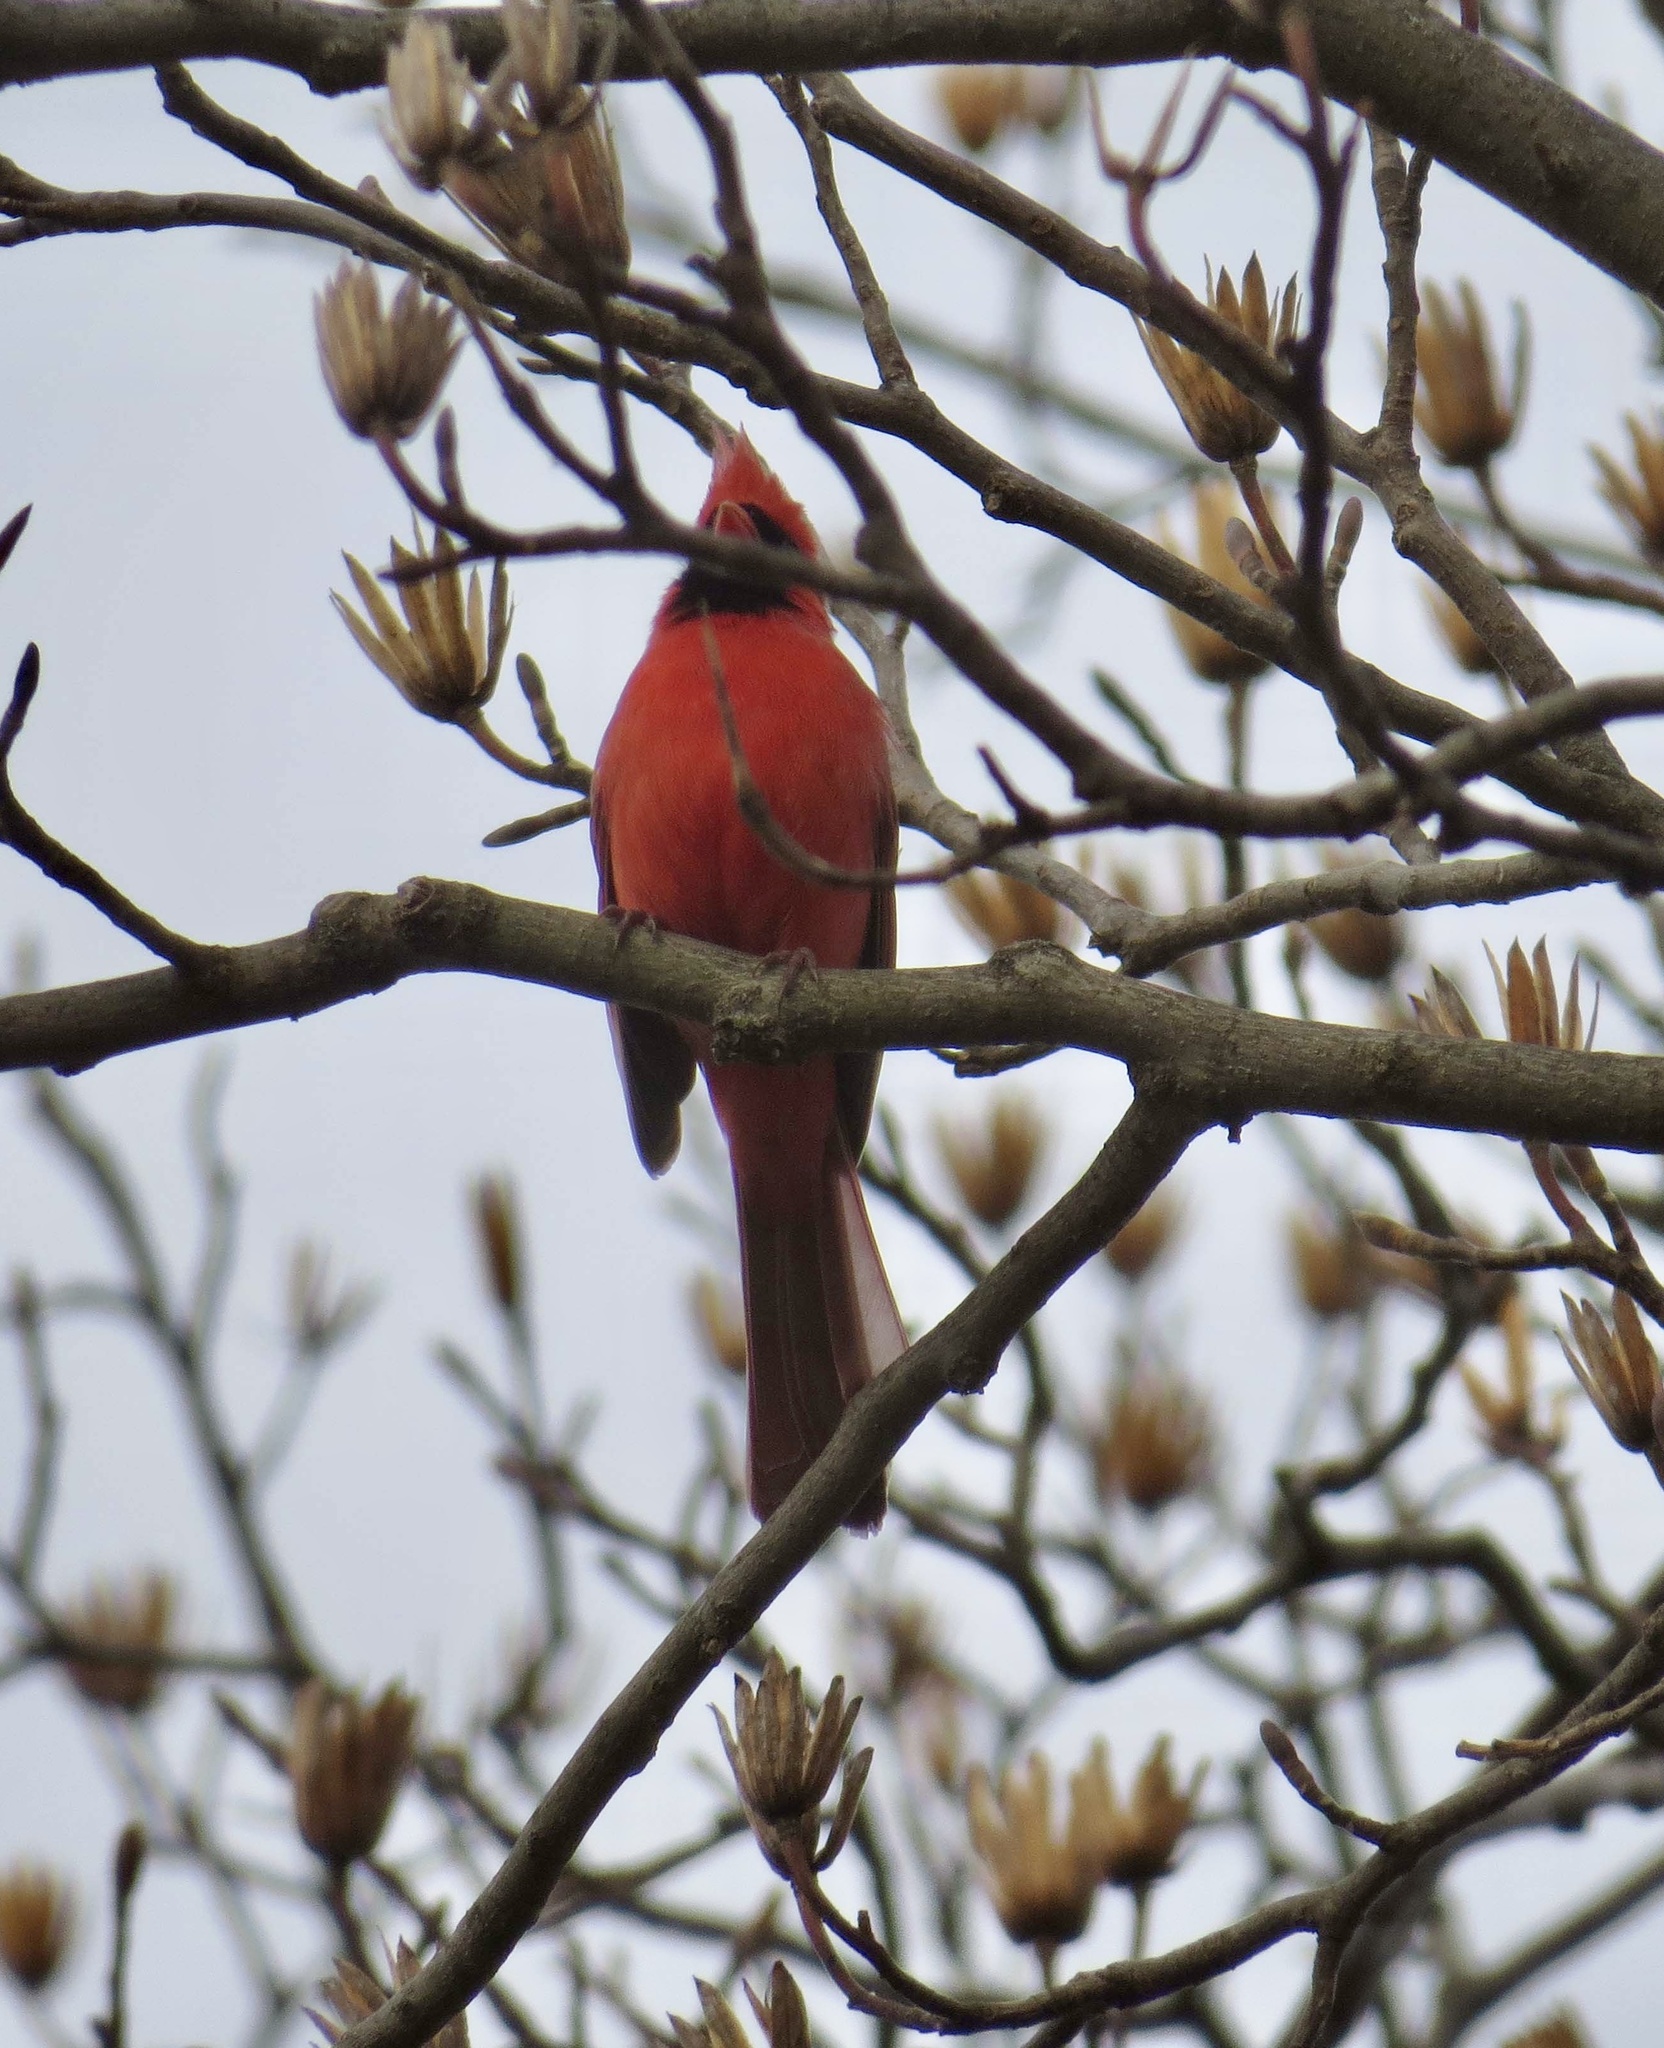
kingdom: Animalia
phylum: Chordata
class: Aves
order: Passeriformes
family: Cardinalidae
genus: Cardinalis
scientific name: Cardinalis cardinalis
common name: Northern cardinal
